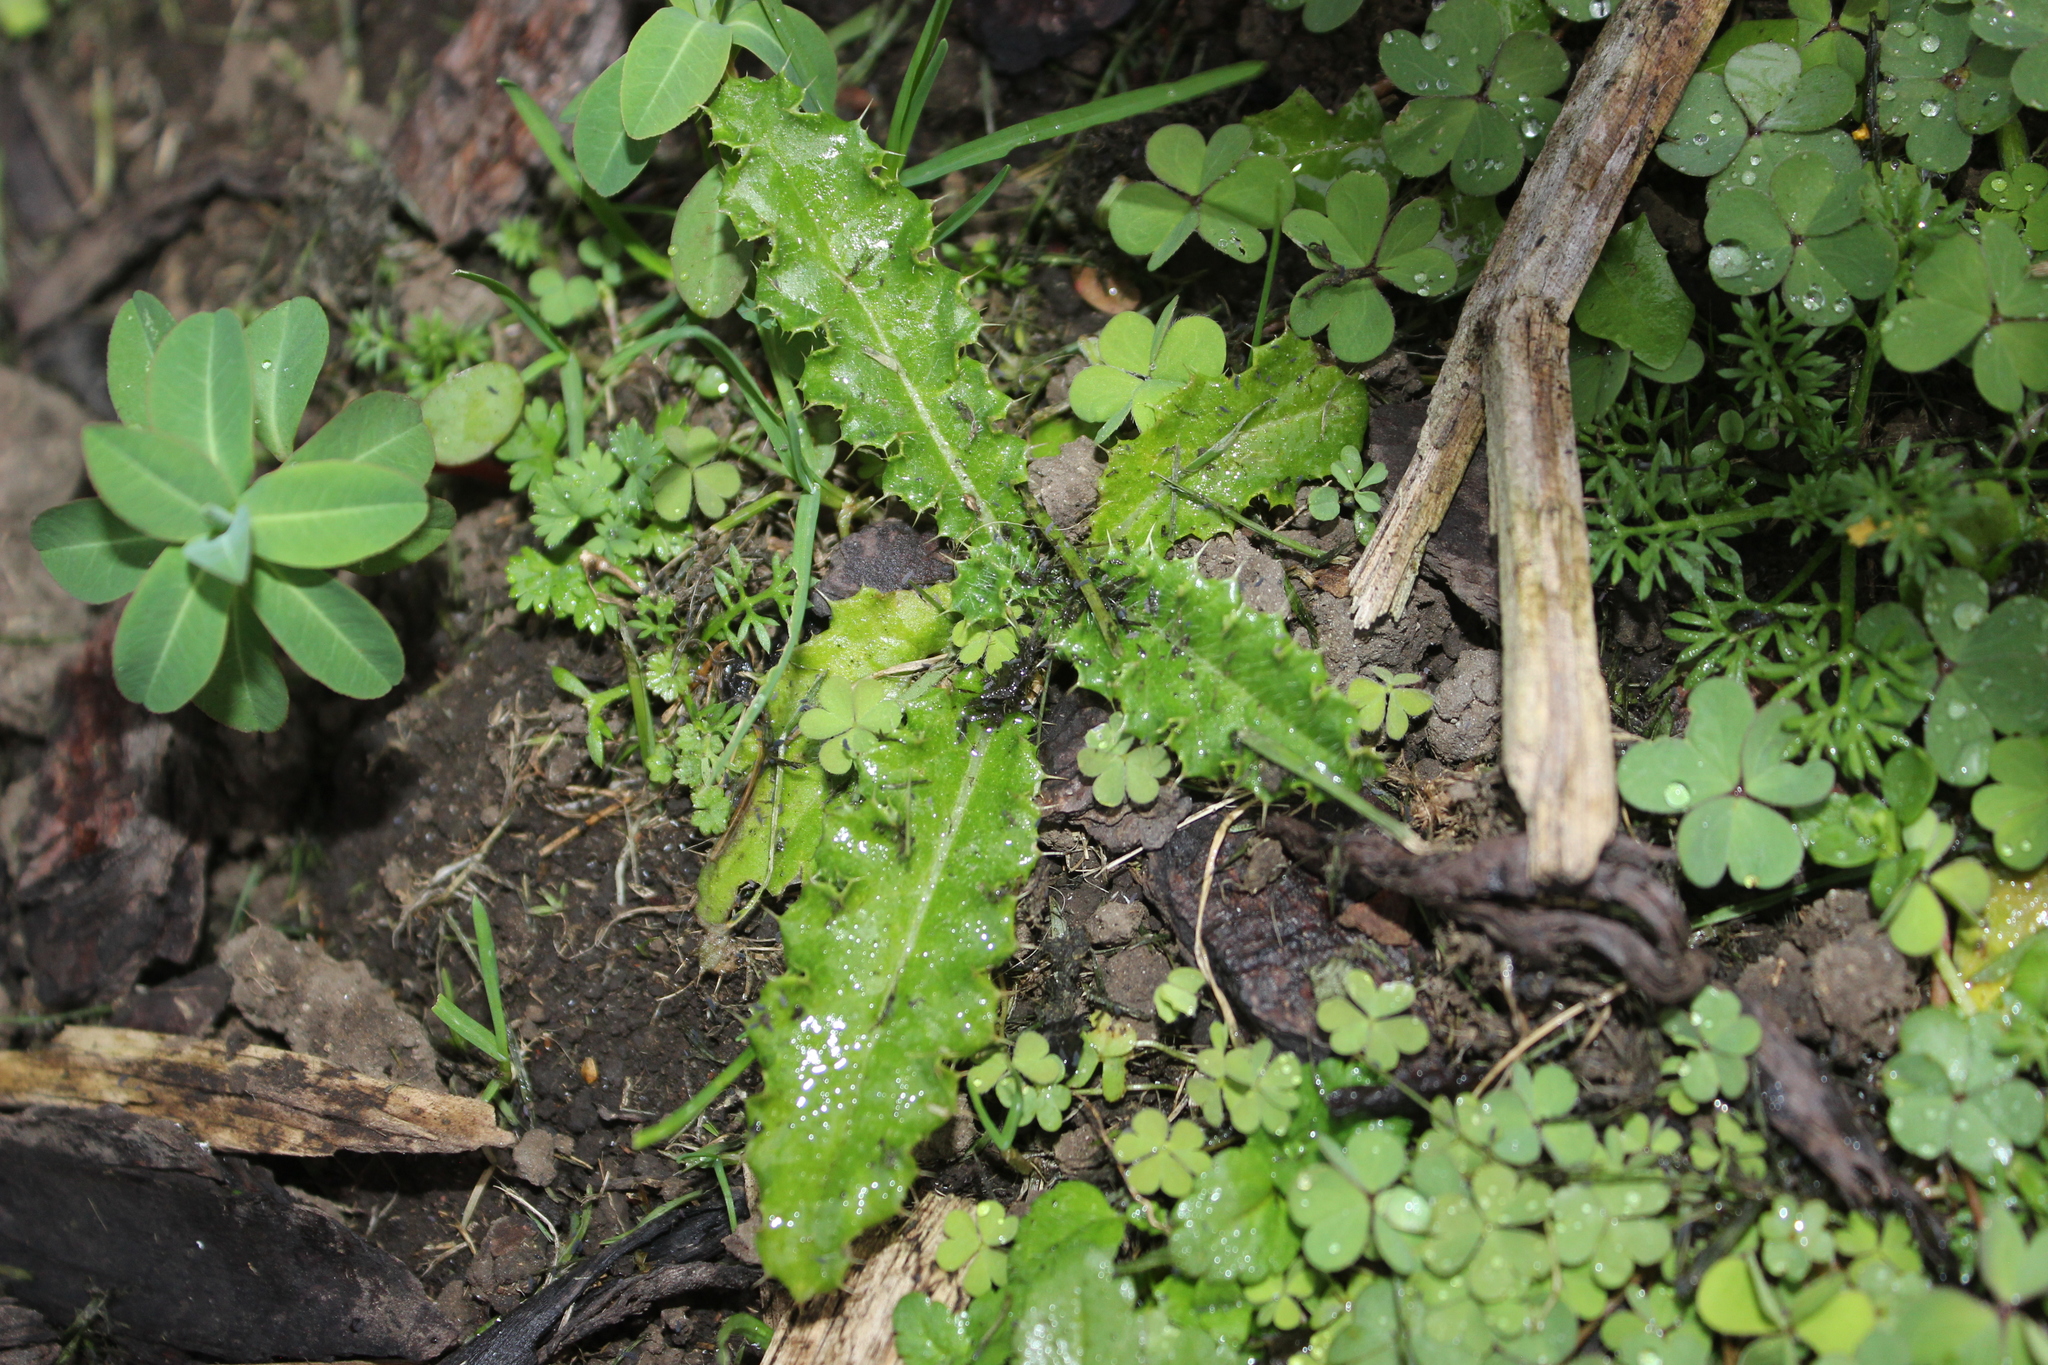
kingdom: Plantae
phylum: Tracheophyta
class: Magnoliopsida
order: Asterales
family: Asteraceae
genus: Cirsium
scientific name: Cirsium arvense
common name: Creeping thistle
